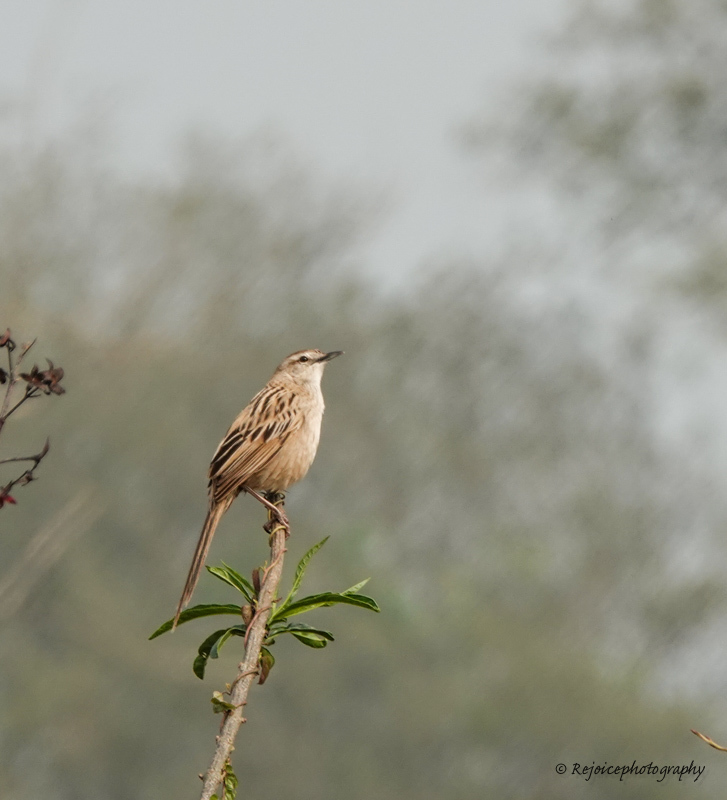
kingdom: Animalia
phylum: Chordata
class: Aves
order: Passeriformes
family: Locustellidae
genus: Megalurus
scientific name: Megalurus palustris
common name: Striated grassbird
